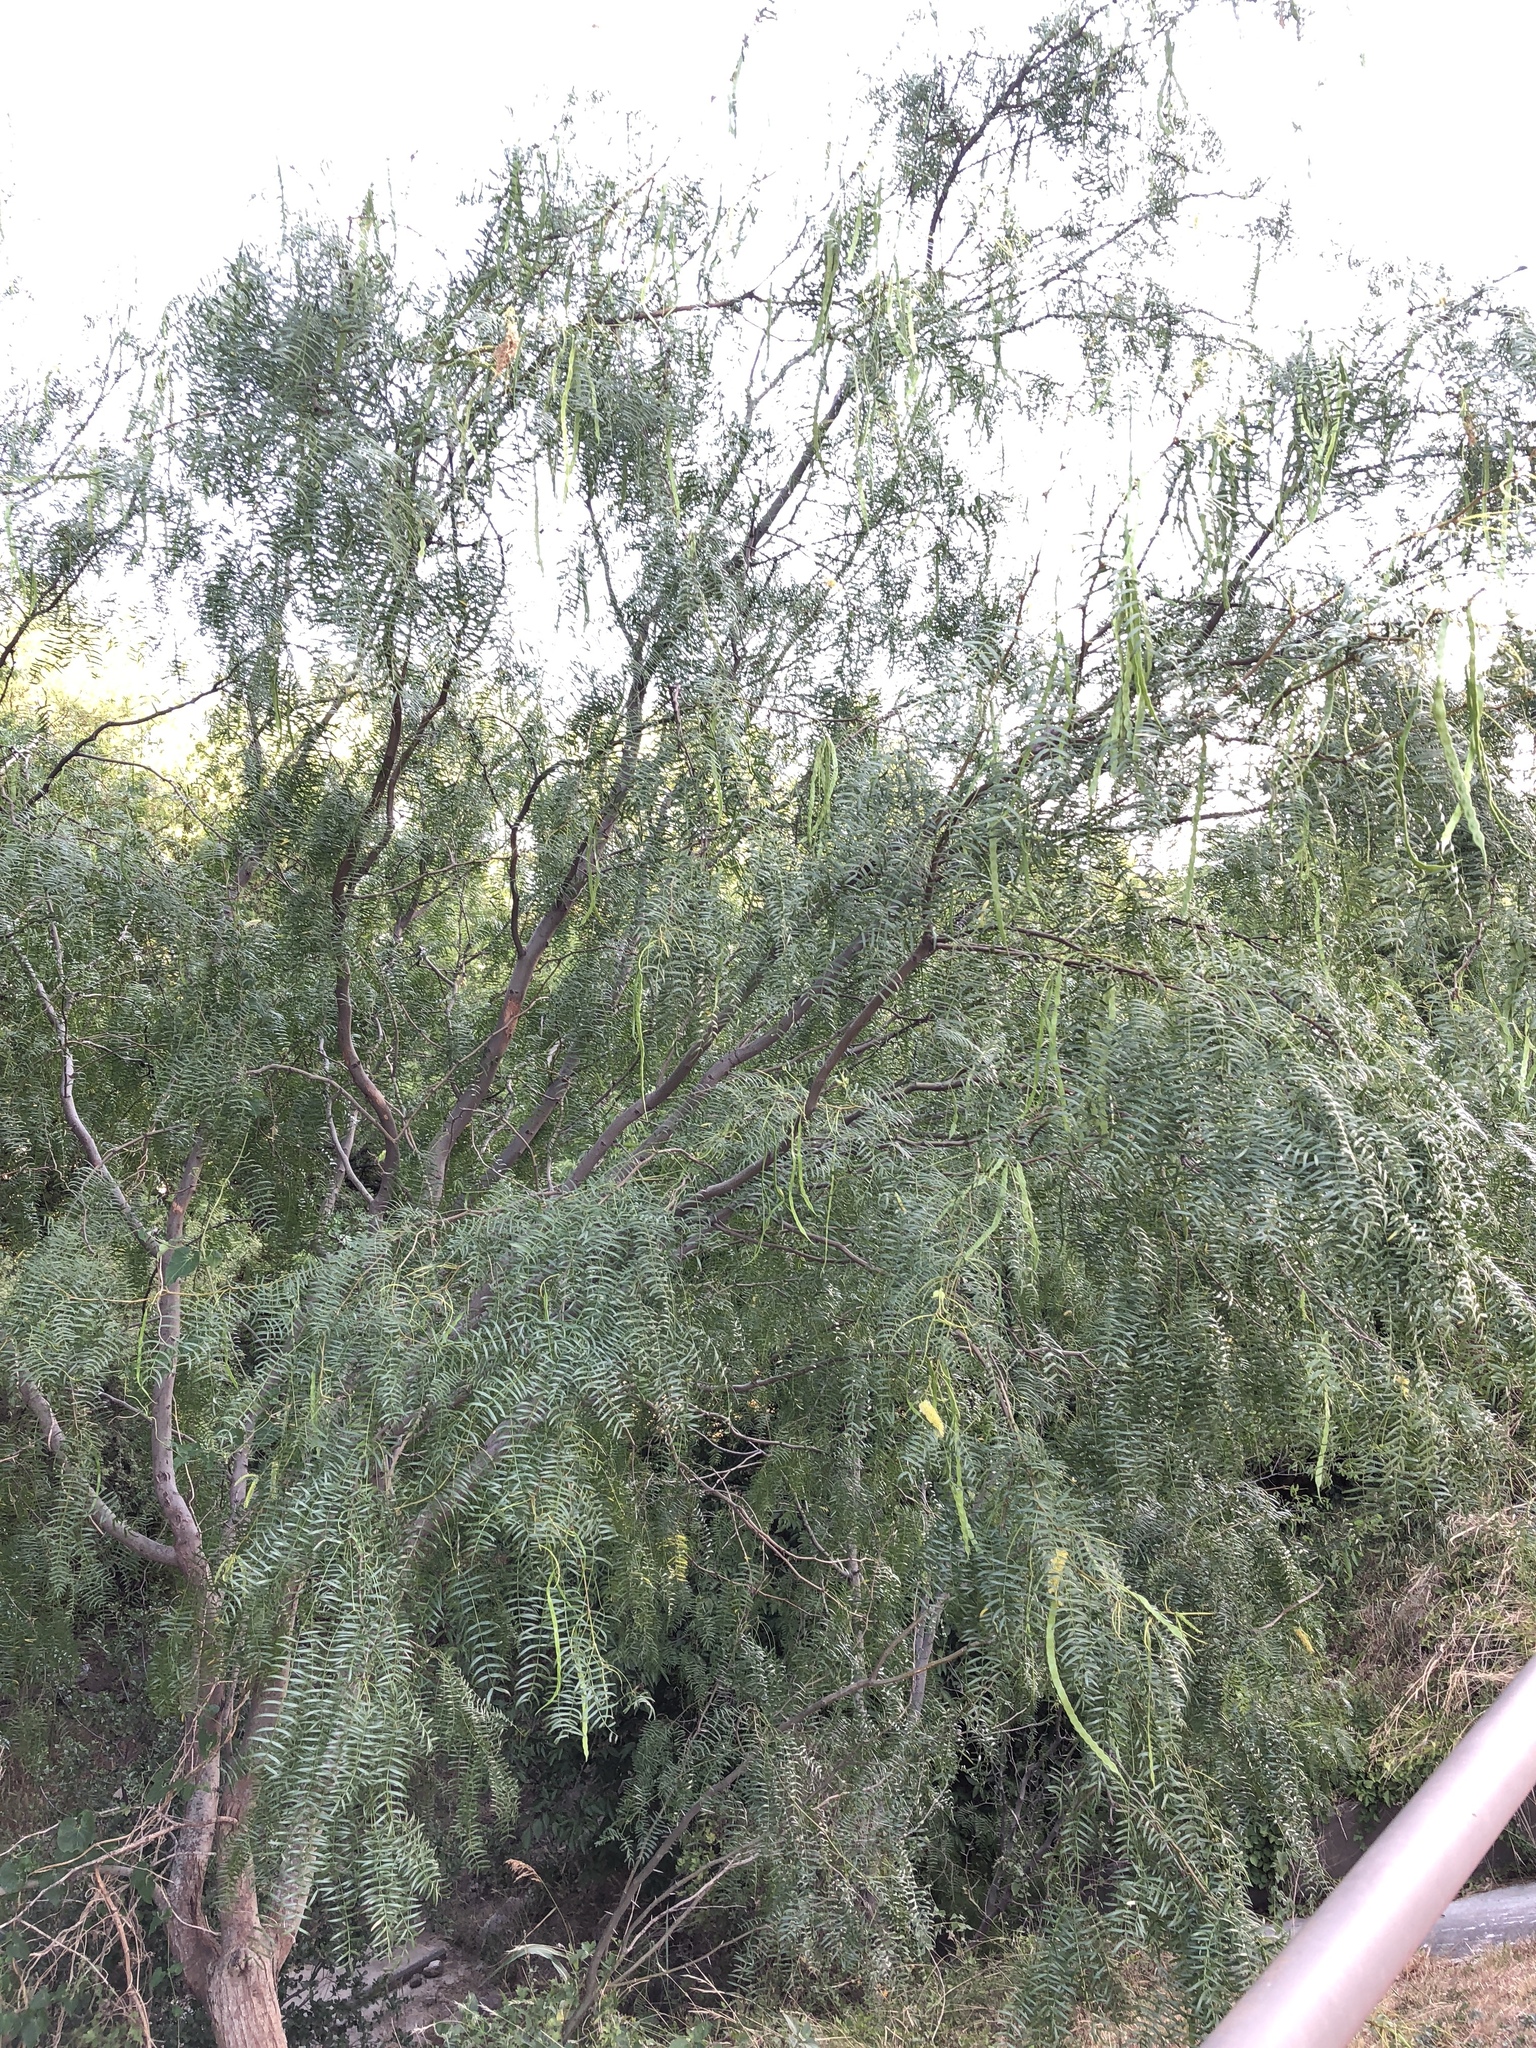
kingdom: Plantae
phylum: Tracheophyta
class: Magnoliopsida
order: Fabales
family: Fabaceae
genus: Prosopis
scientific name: Prosopis glandulosa
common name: Honey mesquite
